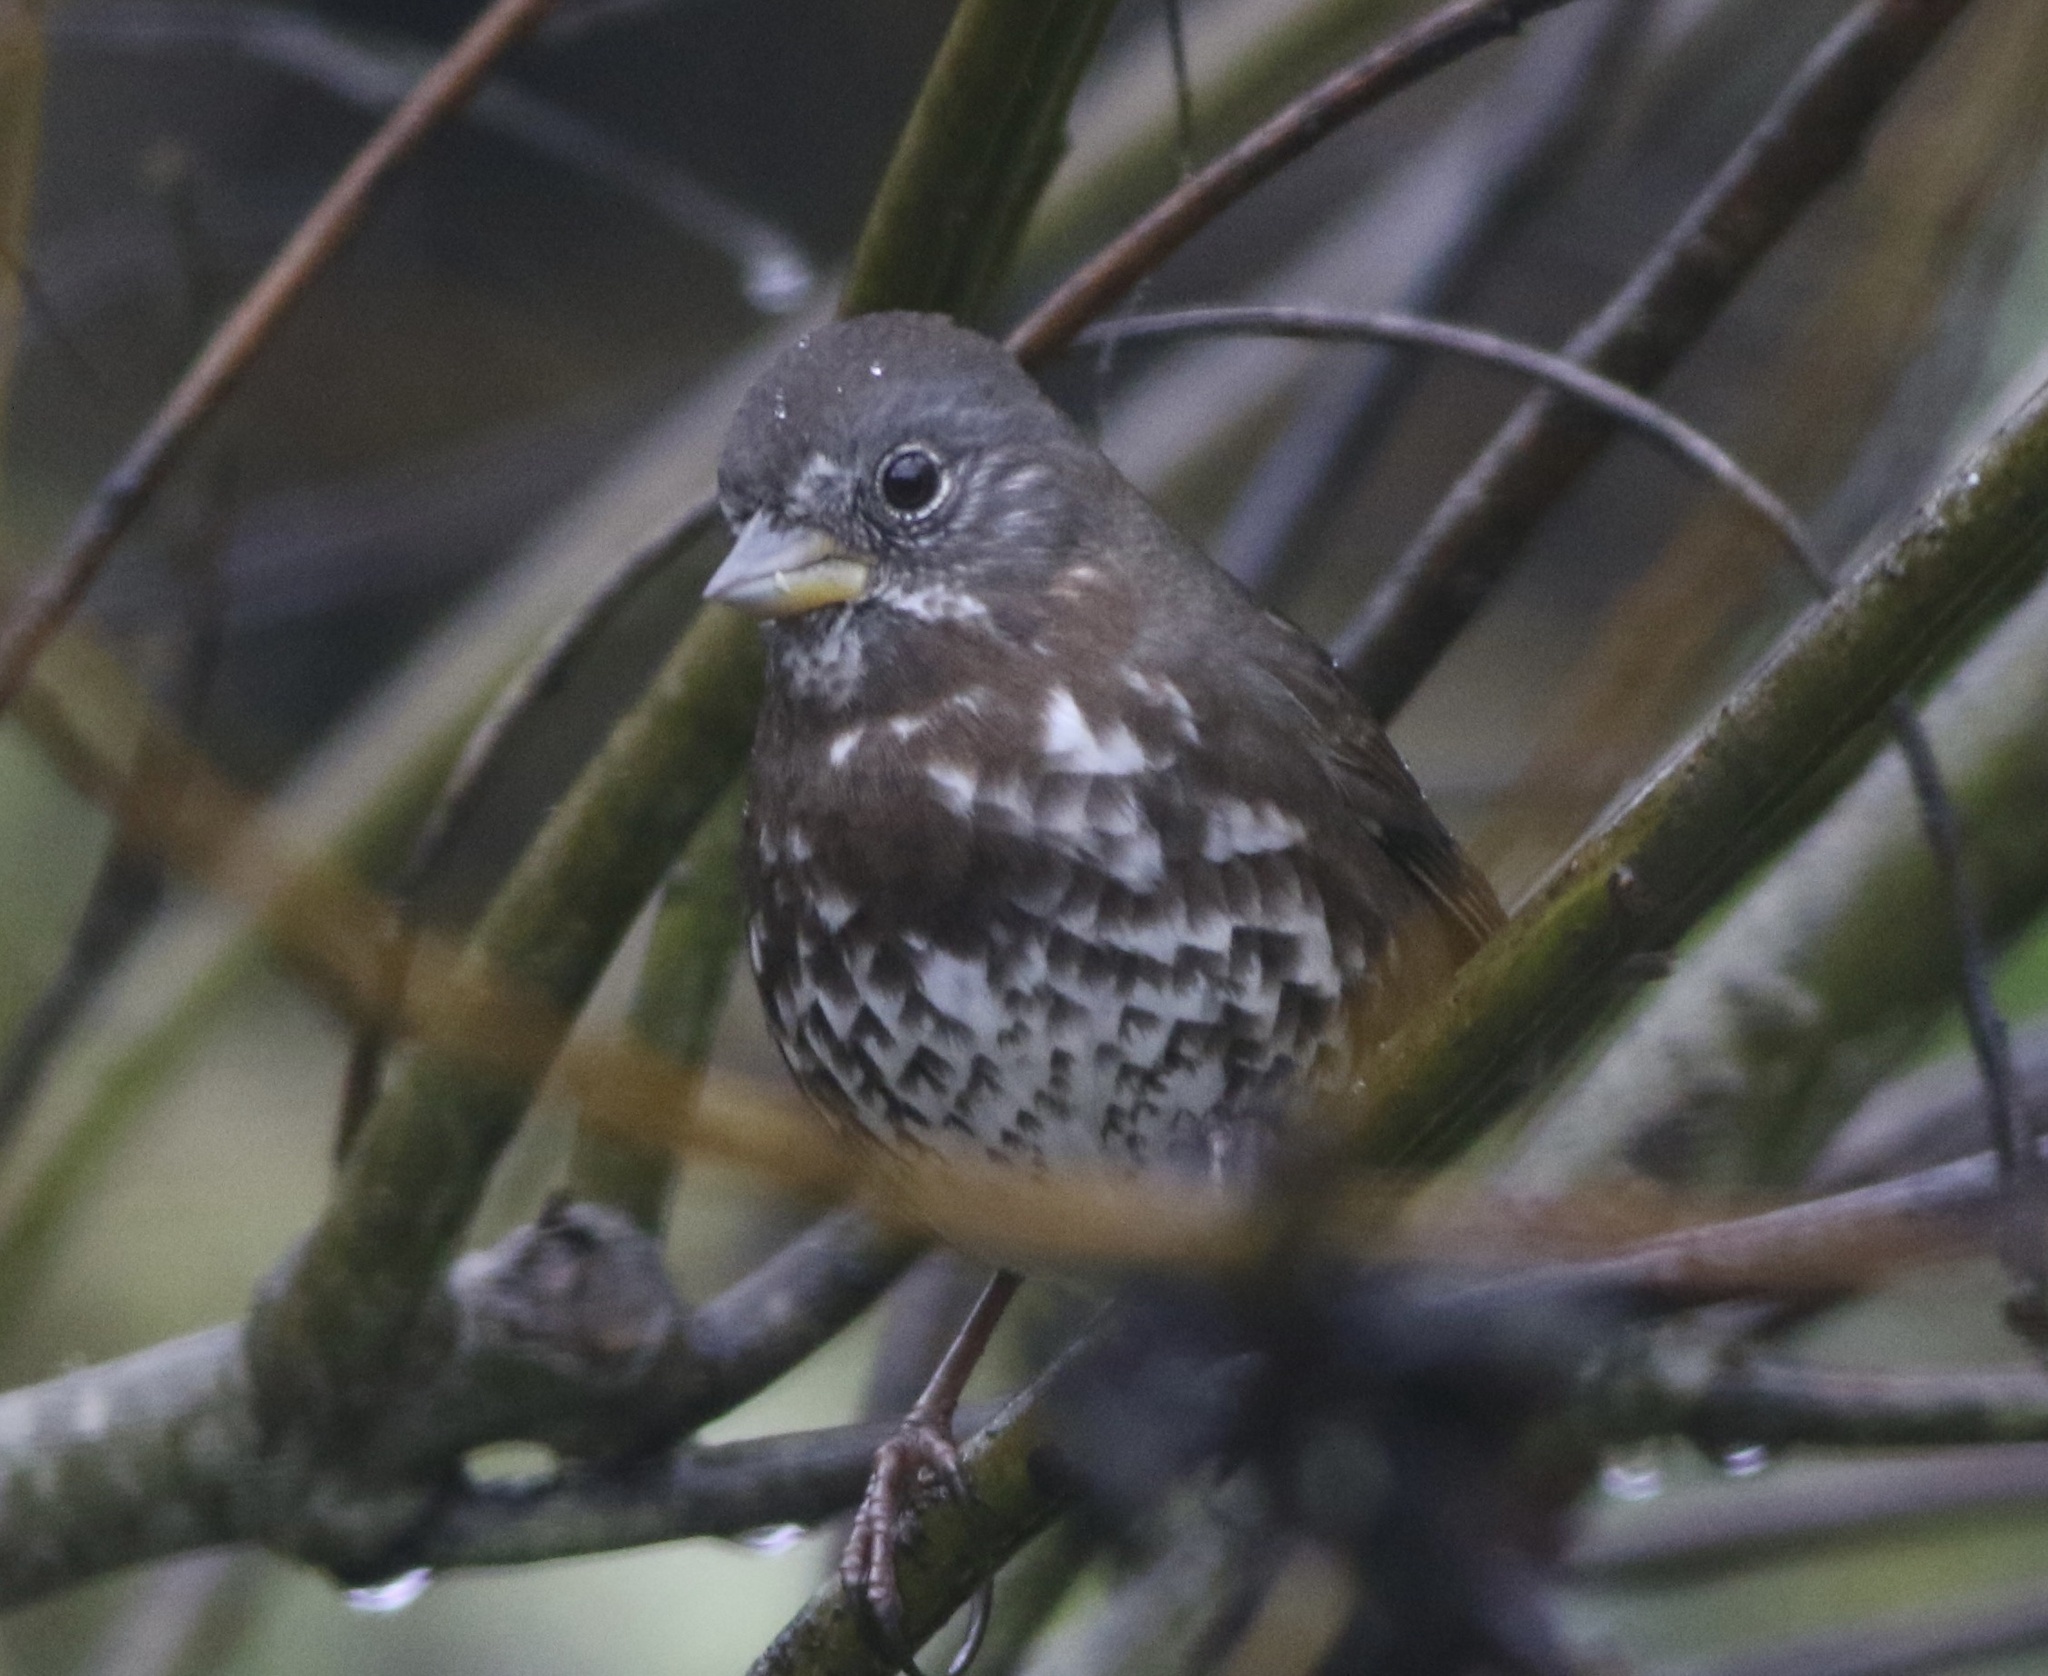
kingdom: Animalia
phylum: Chordata
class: Aves
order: Passeriformes
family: Passerellidae
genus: Passerella
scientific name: Passerella iliaca
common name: Fox sparrow
